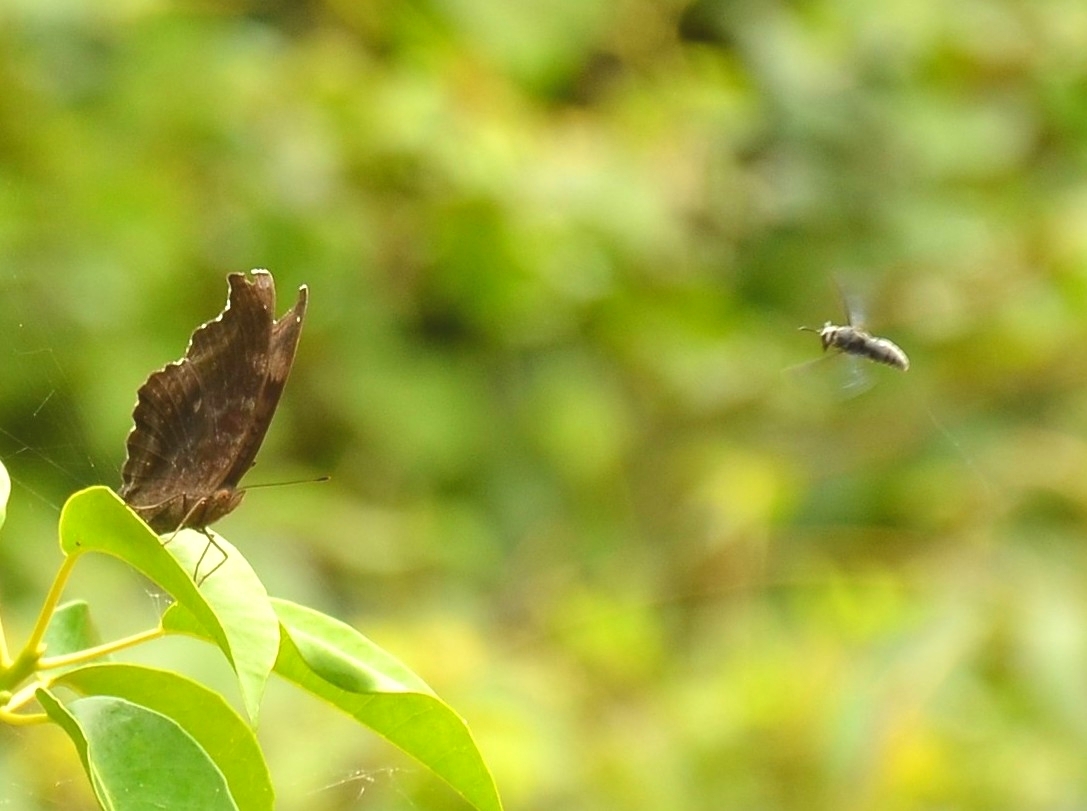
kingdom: Animalia
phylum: Arthropoda
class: Insecta
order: Lepidoptera
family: Nymphalidae
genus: Junonia
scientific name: Junonia iphita
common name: Chocolate pansy
